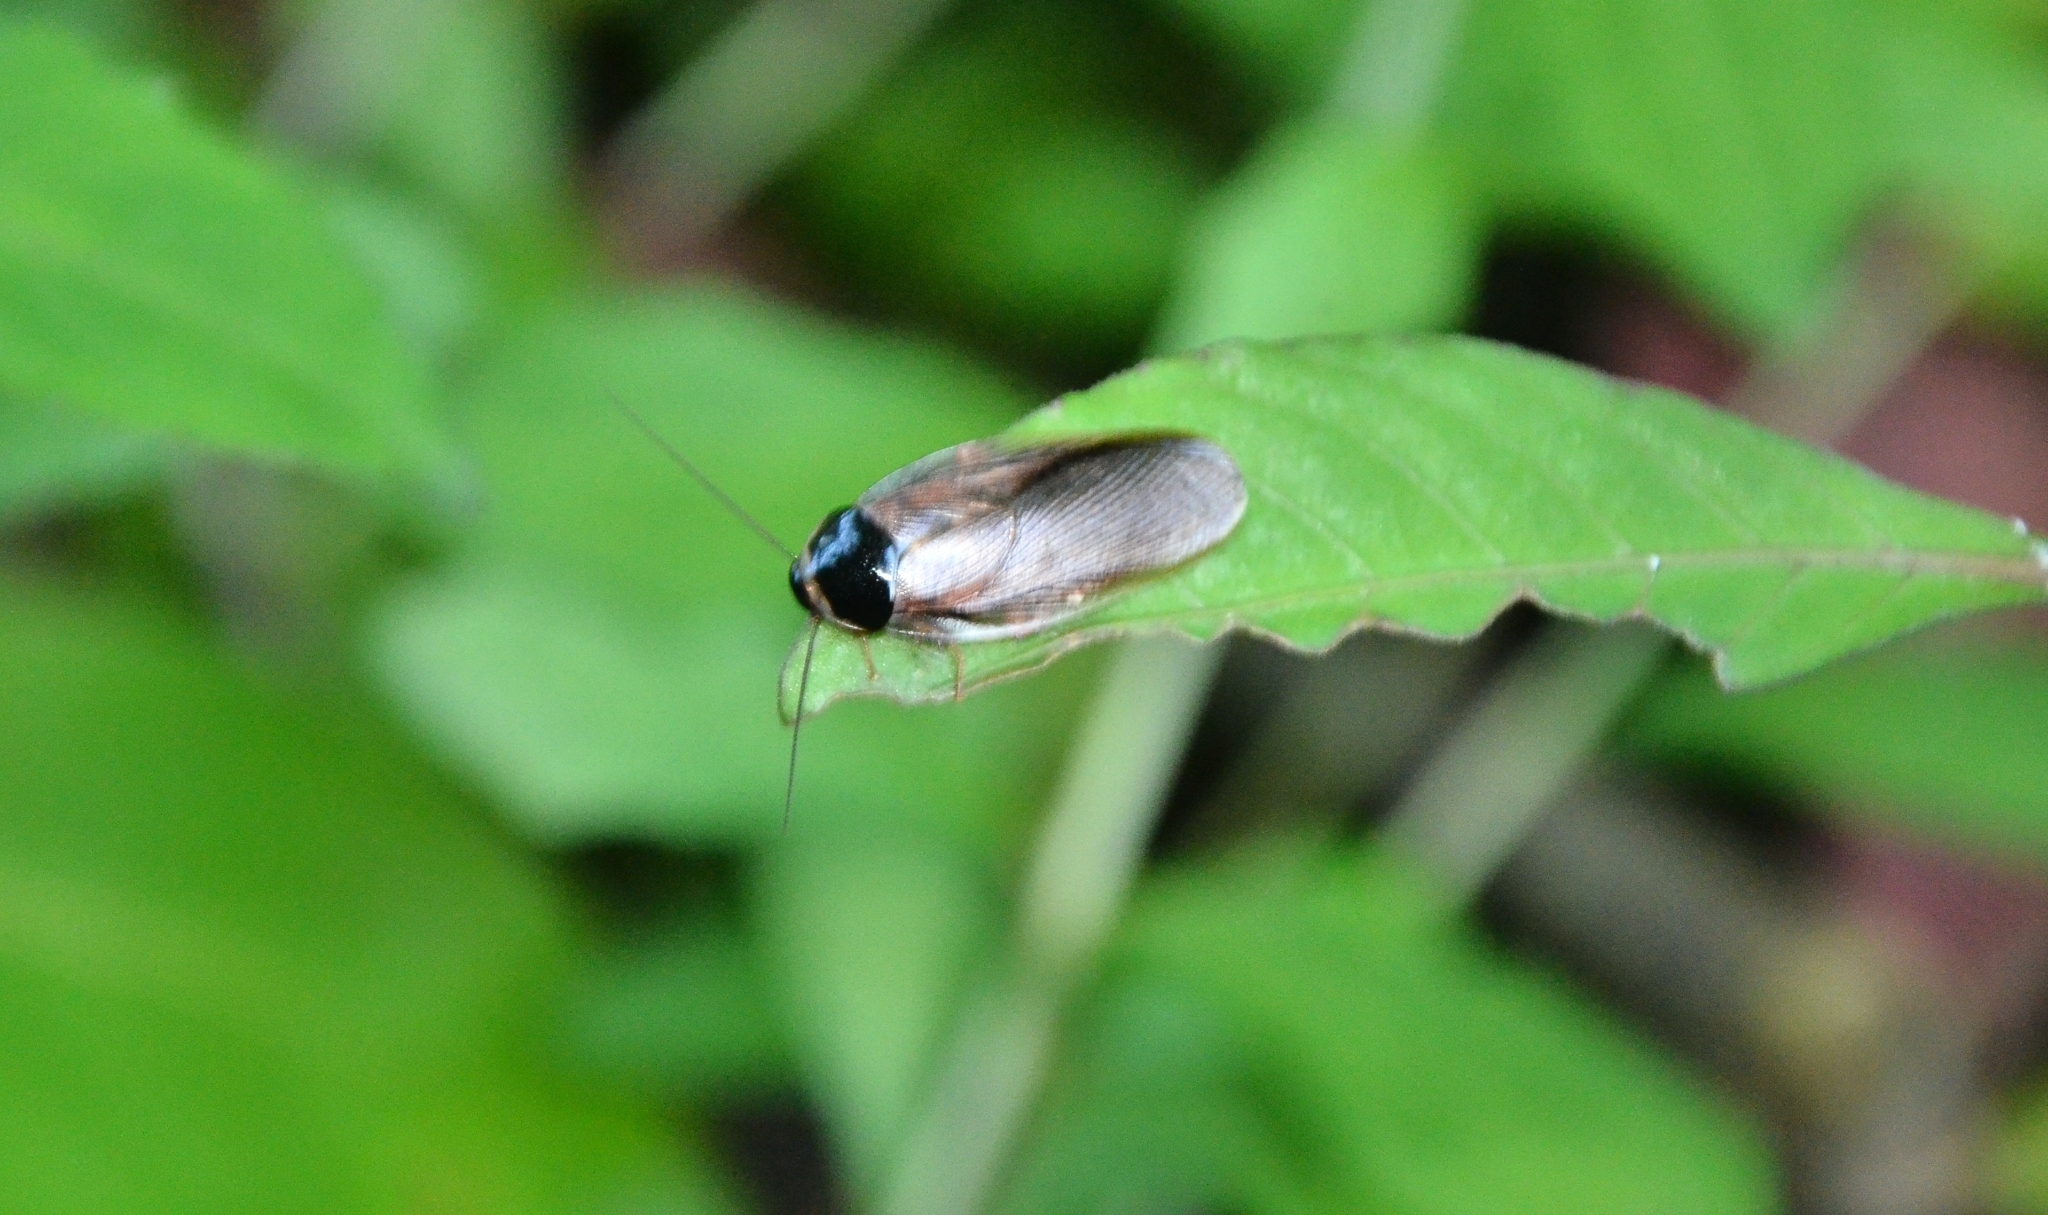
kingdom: Animalia
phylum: Arthropoda
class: Insecta
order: Blattodea
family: Blaberidae
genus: Pycnoscelus
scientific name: Pycnoscelus indicus
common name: Burrowing cockroach
